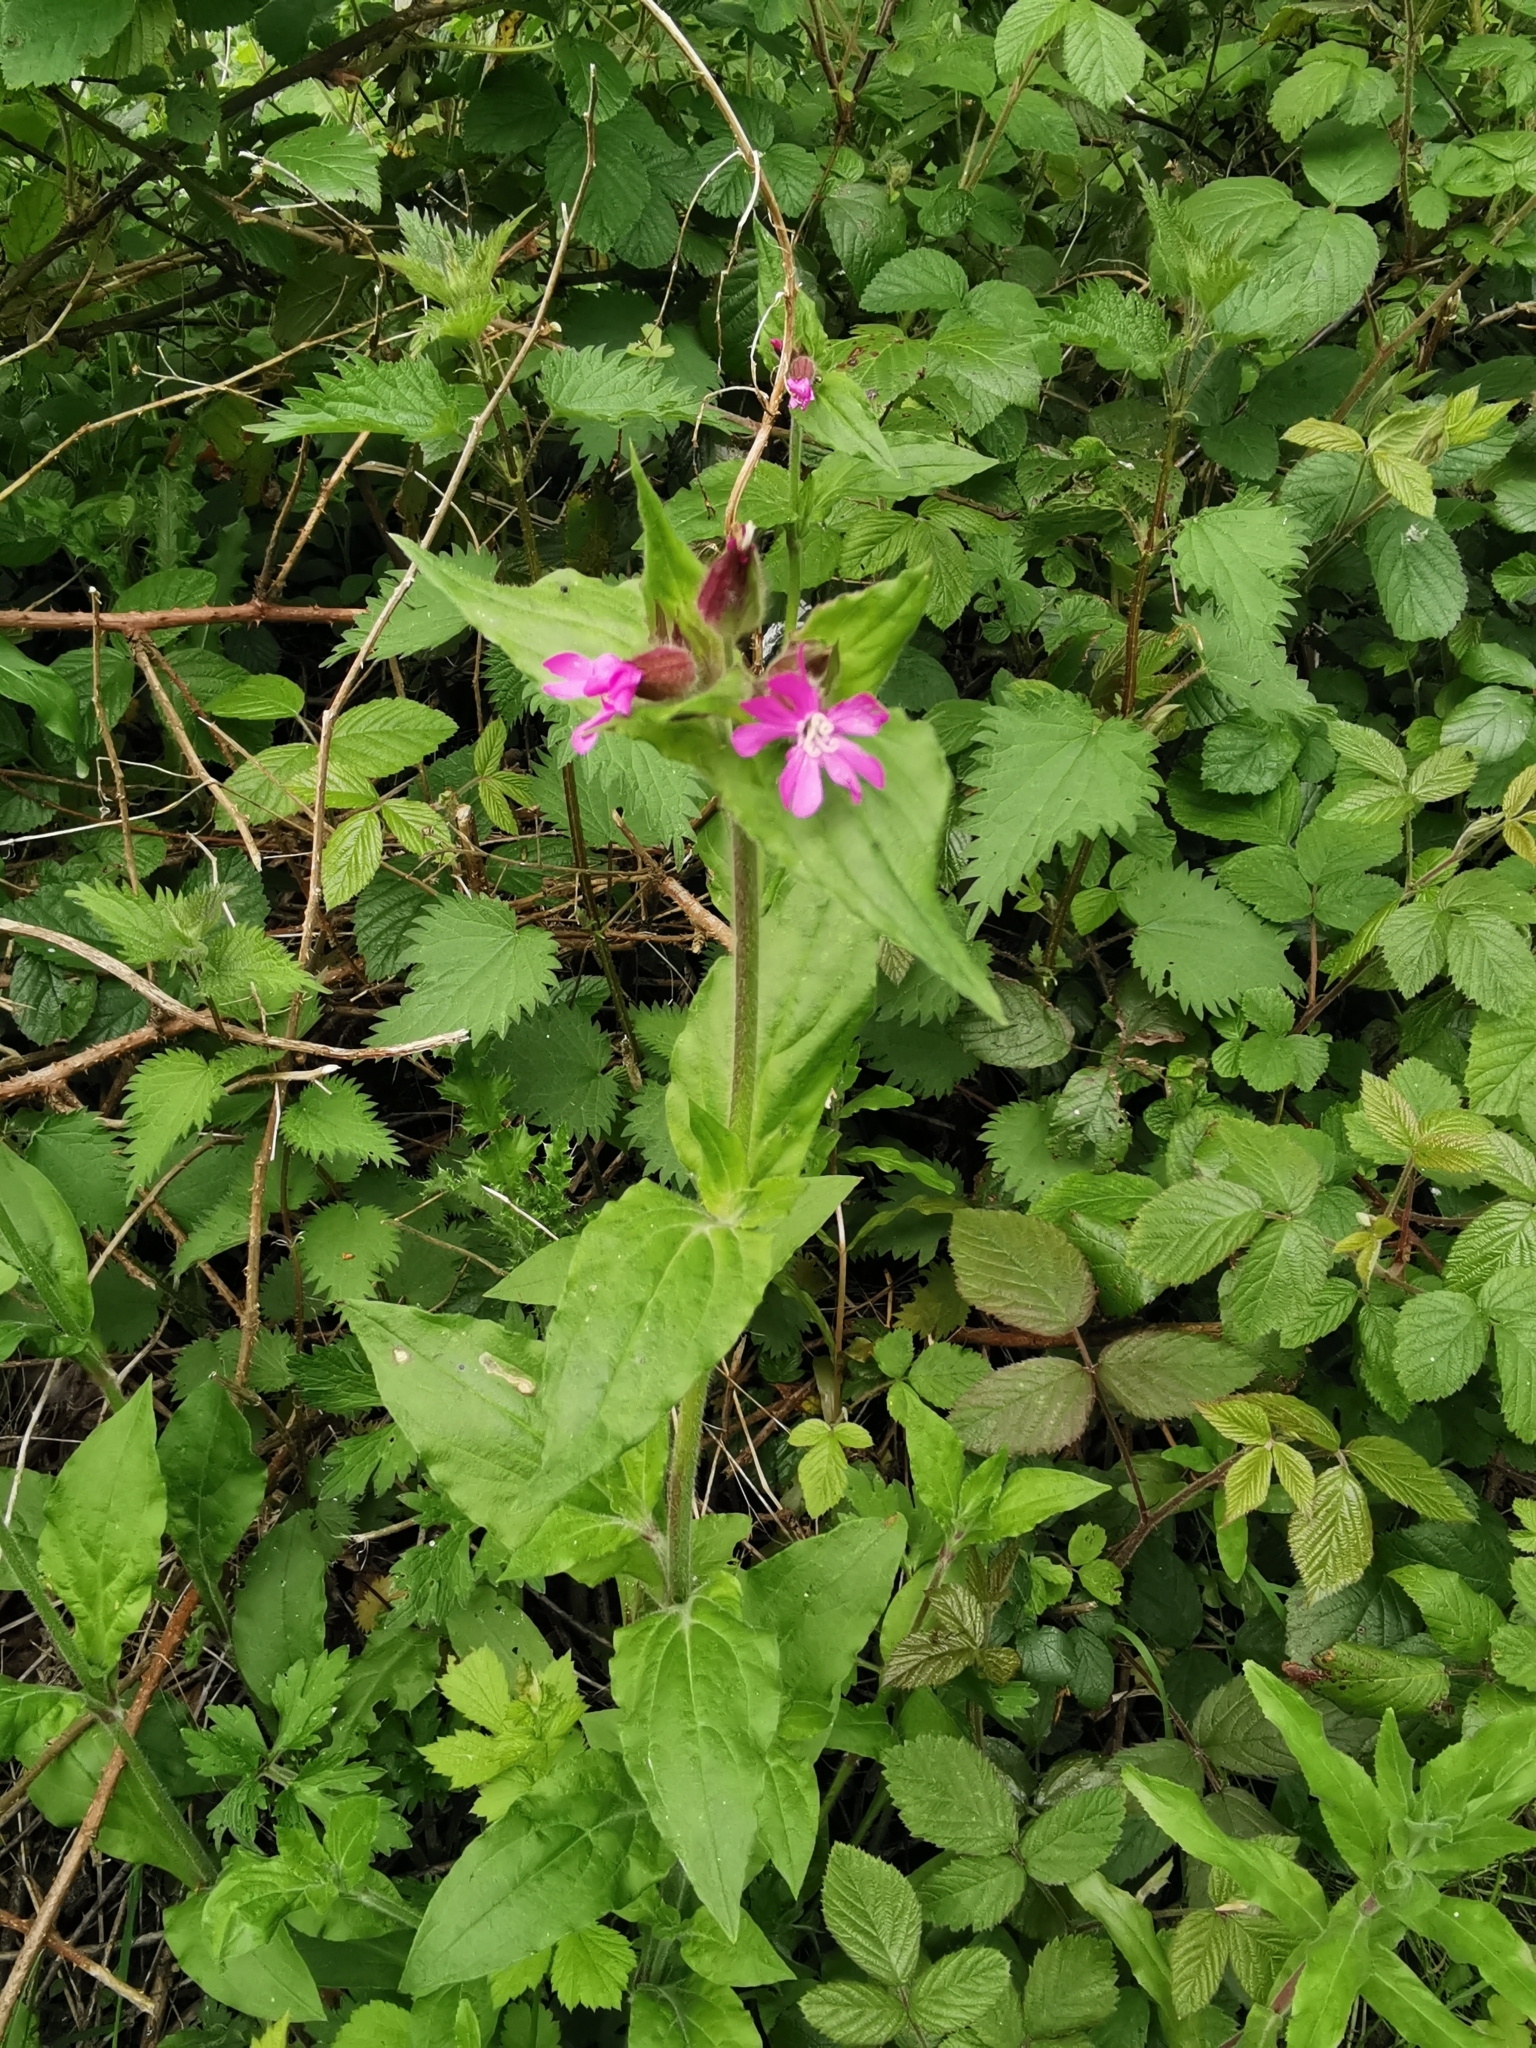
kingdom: Plantae
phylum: Tracheophyta
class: Magnoliopsida
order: Caryophyllales
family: Caryophyllaceae
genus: Silene
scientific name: Silene dioica
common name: Red campion
